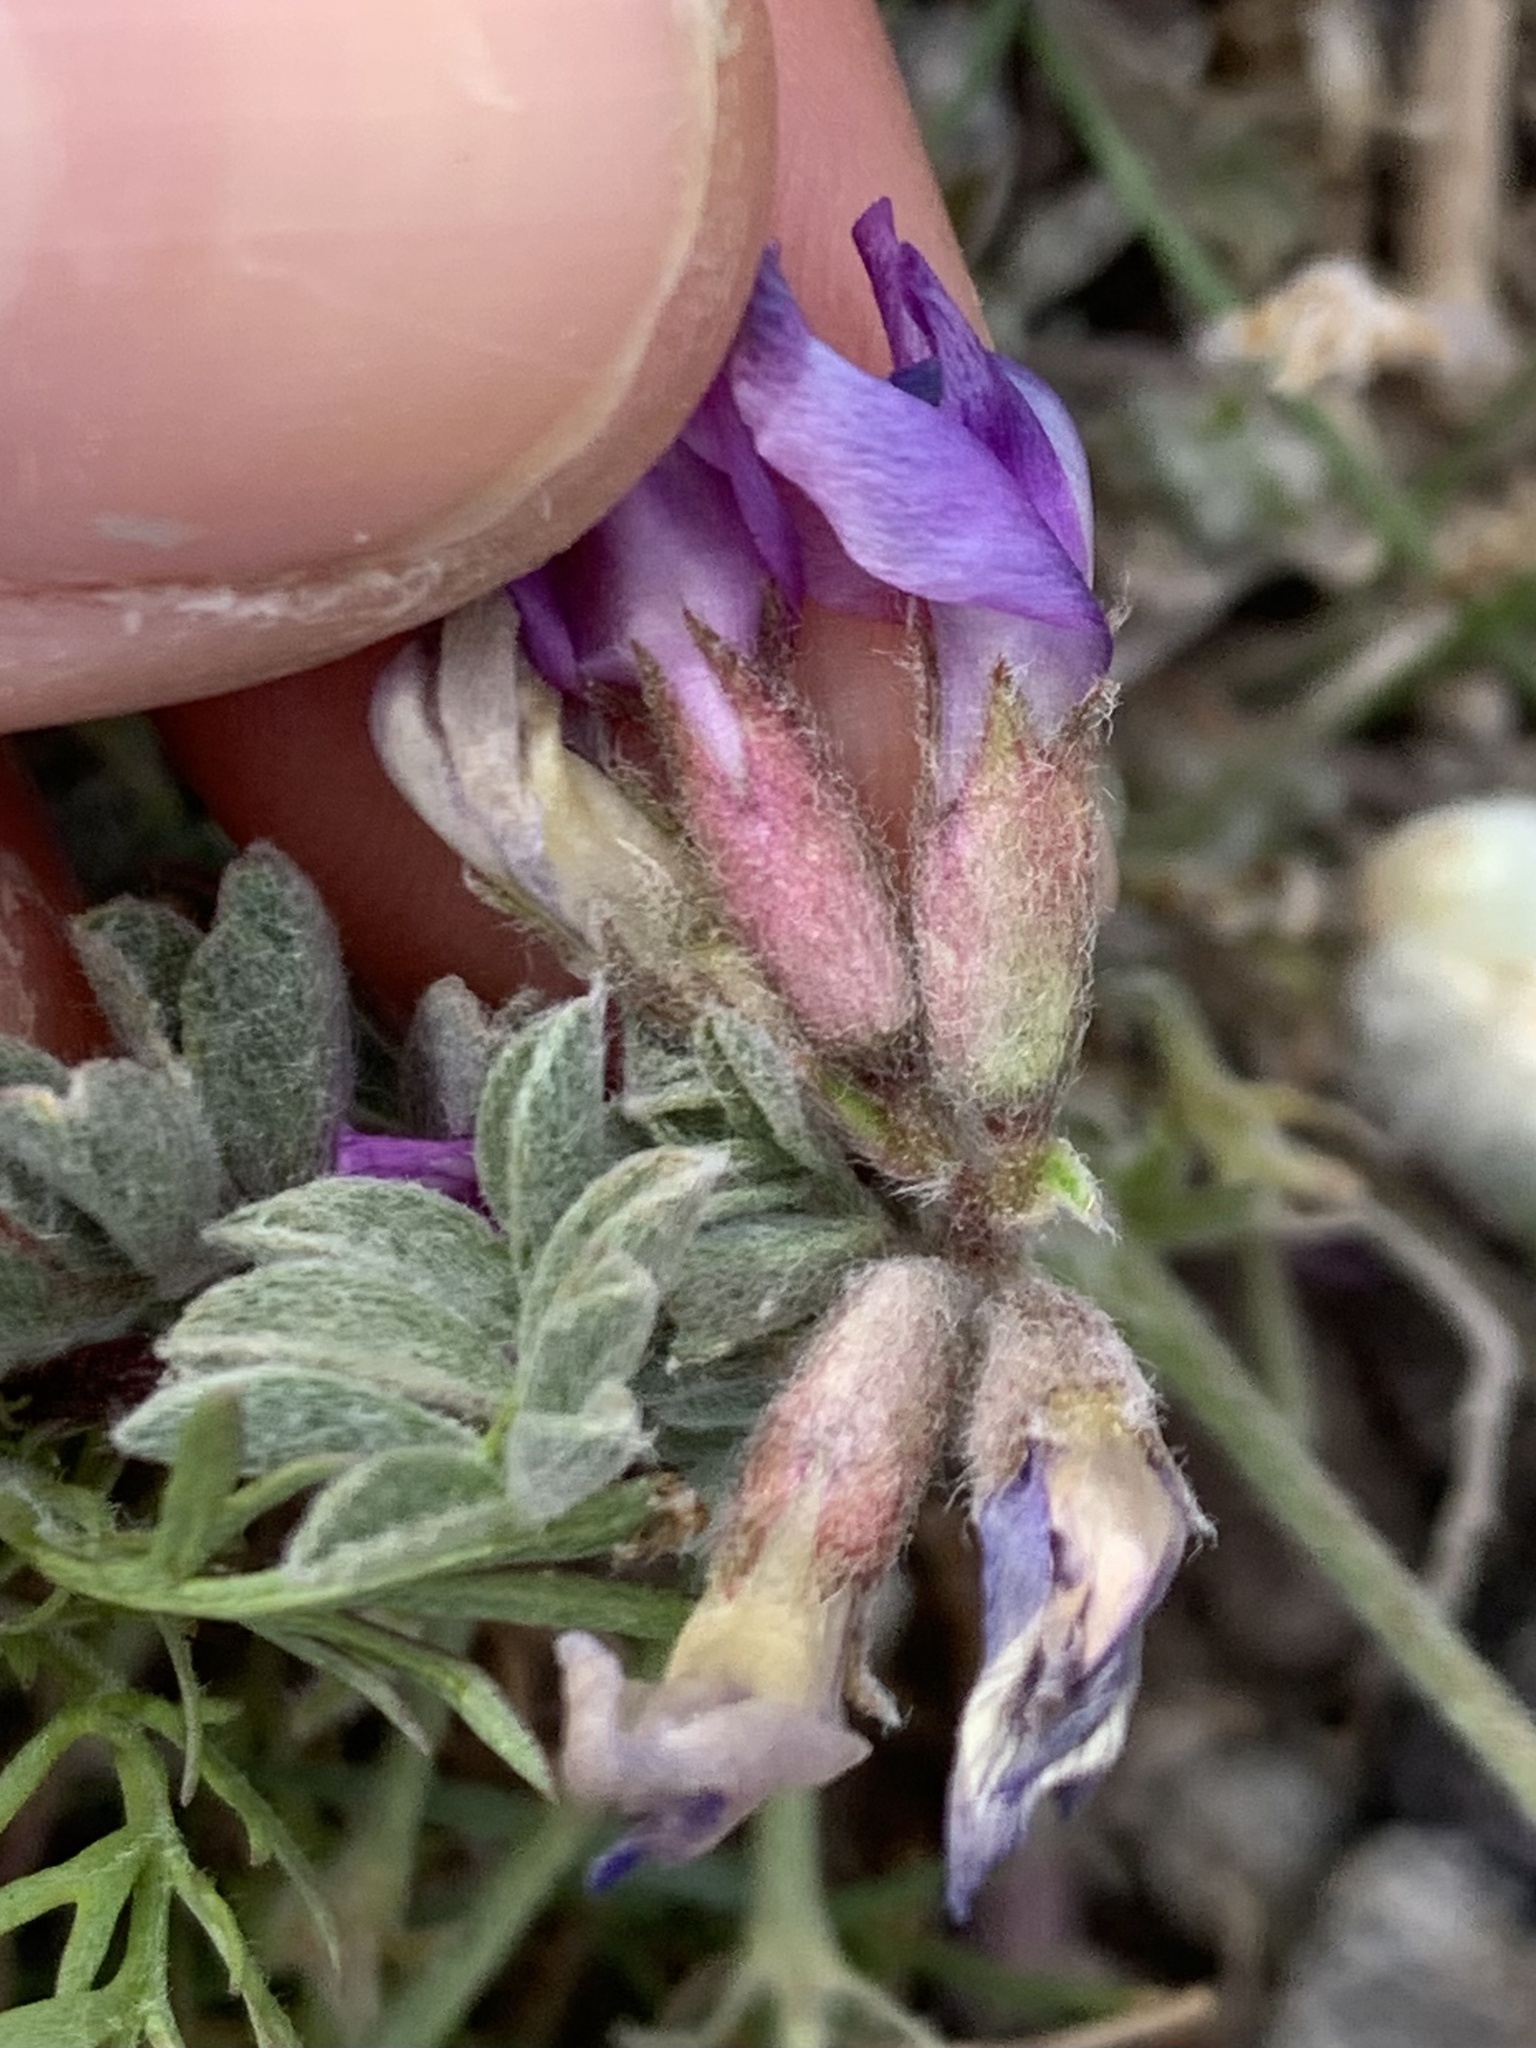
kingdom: Plantae
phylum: Tracheophyta
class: Magnoliopsida
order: Fabales
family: Fabaceae
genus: Astragalus
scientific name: Astragalus purshii
